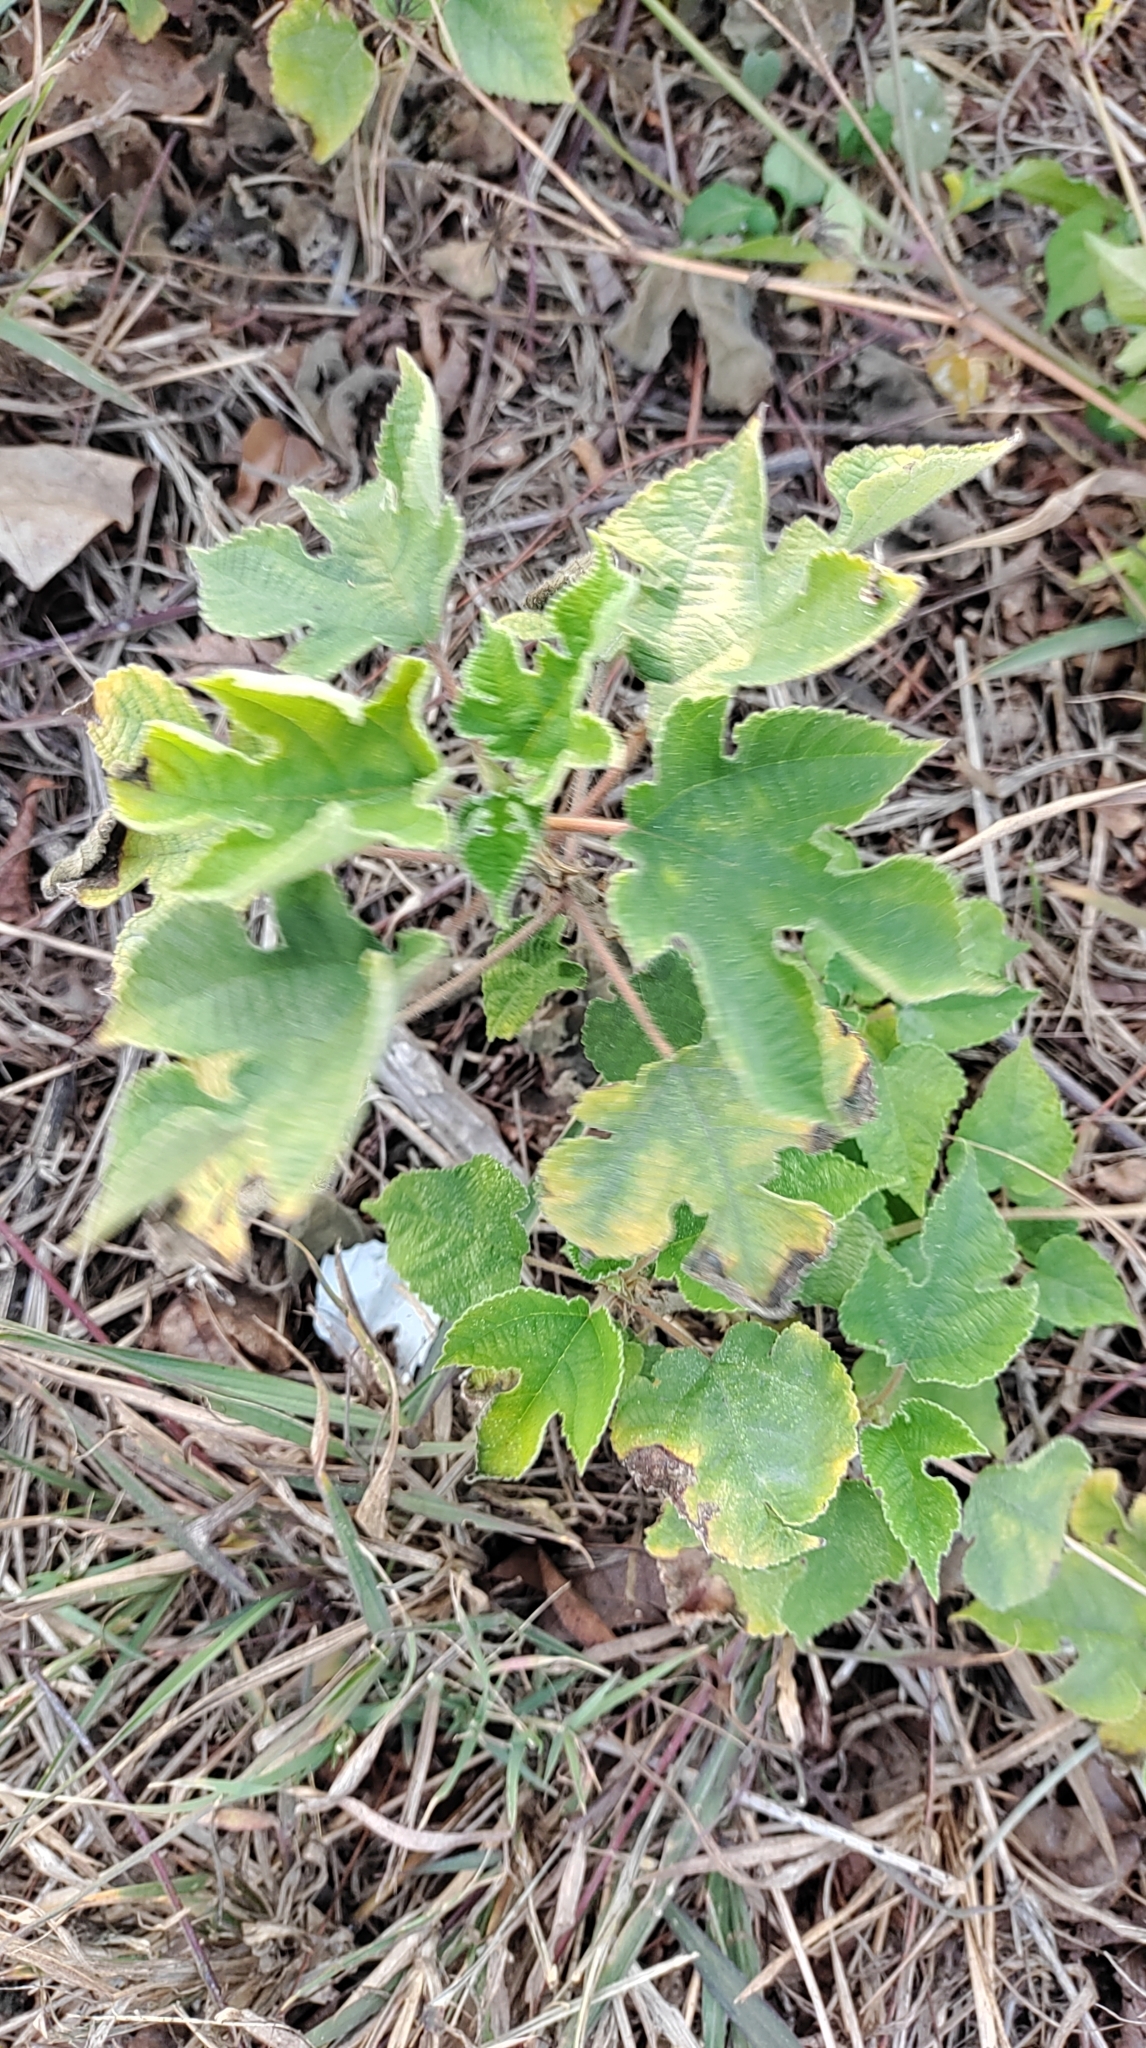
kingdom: Plantae
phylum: Tracheophyta
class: Magnoliopsida
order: Rosales
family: Moraceae
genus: Broussonetia
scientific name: Broussonetia papyrifera
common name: Paper mulberry
